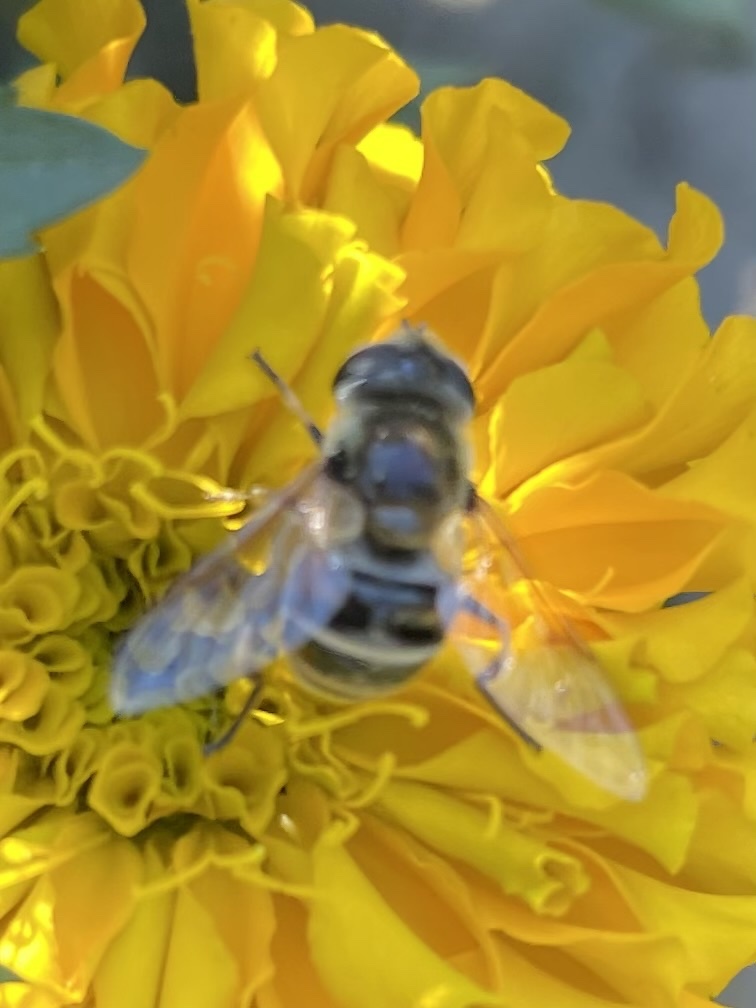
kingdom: Animalia
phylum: Arthropoda
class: Insecta
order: Diptera
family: Syrphidae
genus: Eristalis
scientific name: Eristalis stipator
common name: Yellow-shouldered drone fly
